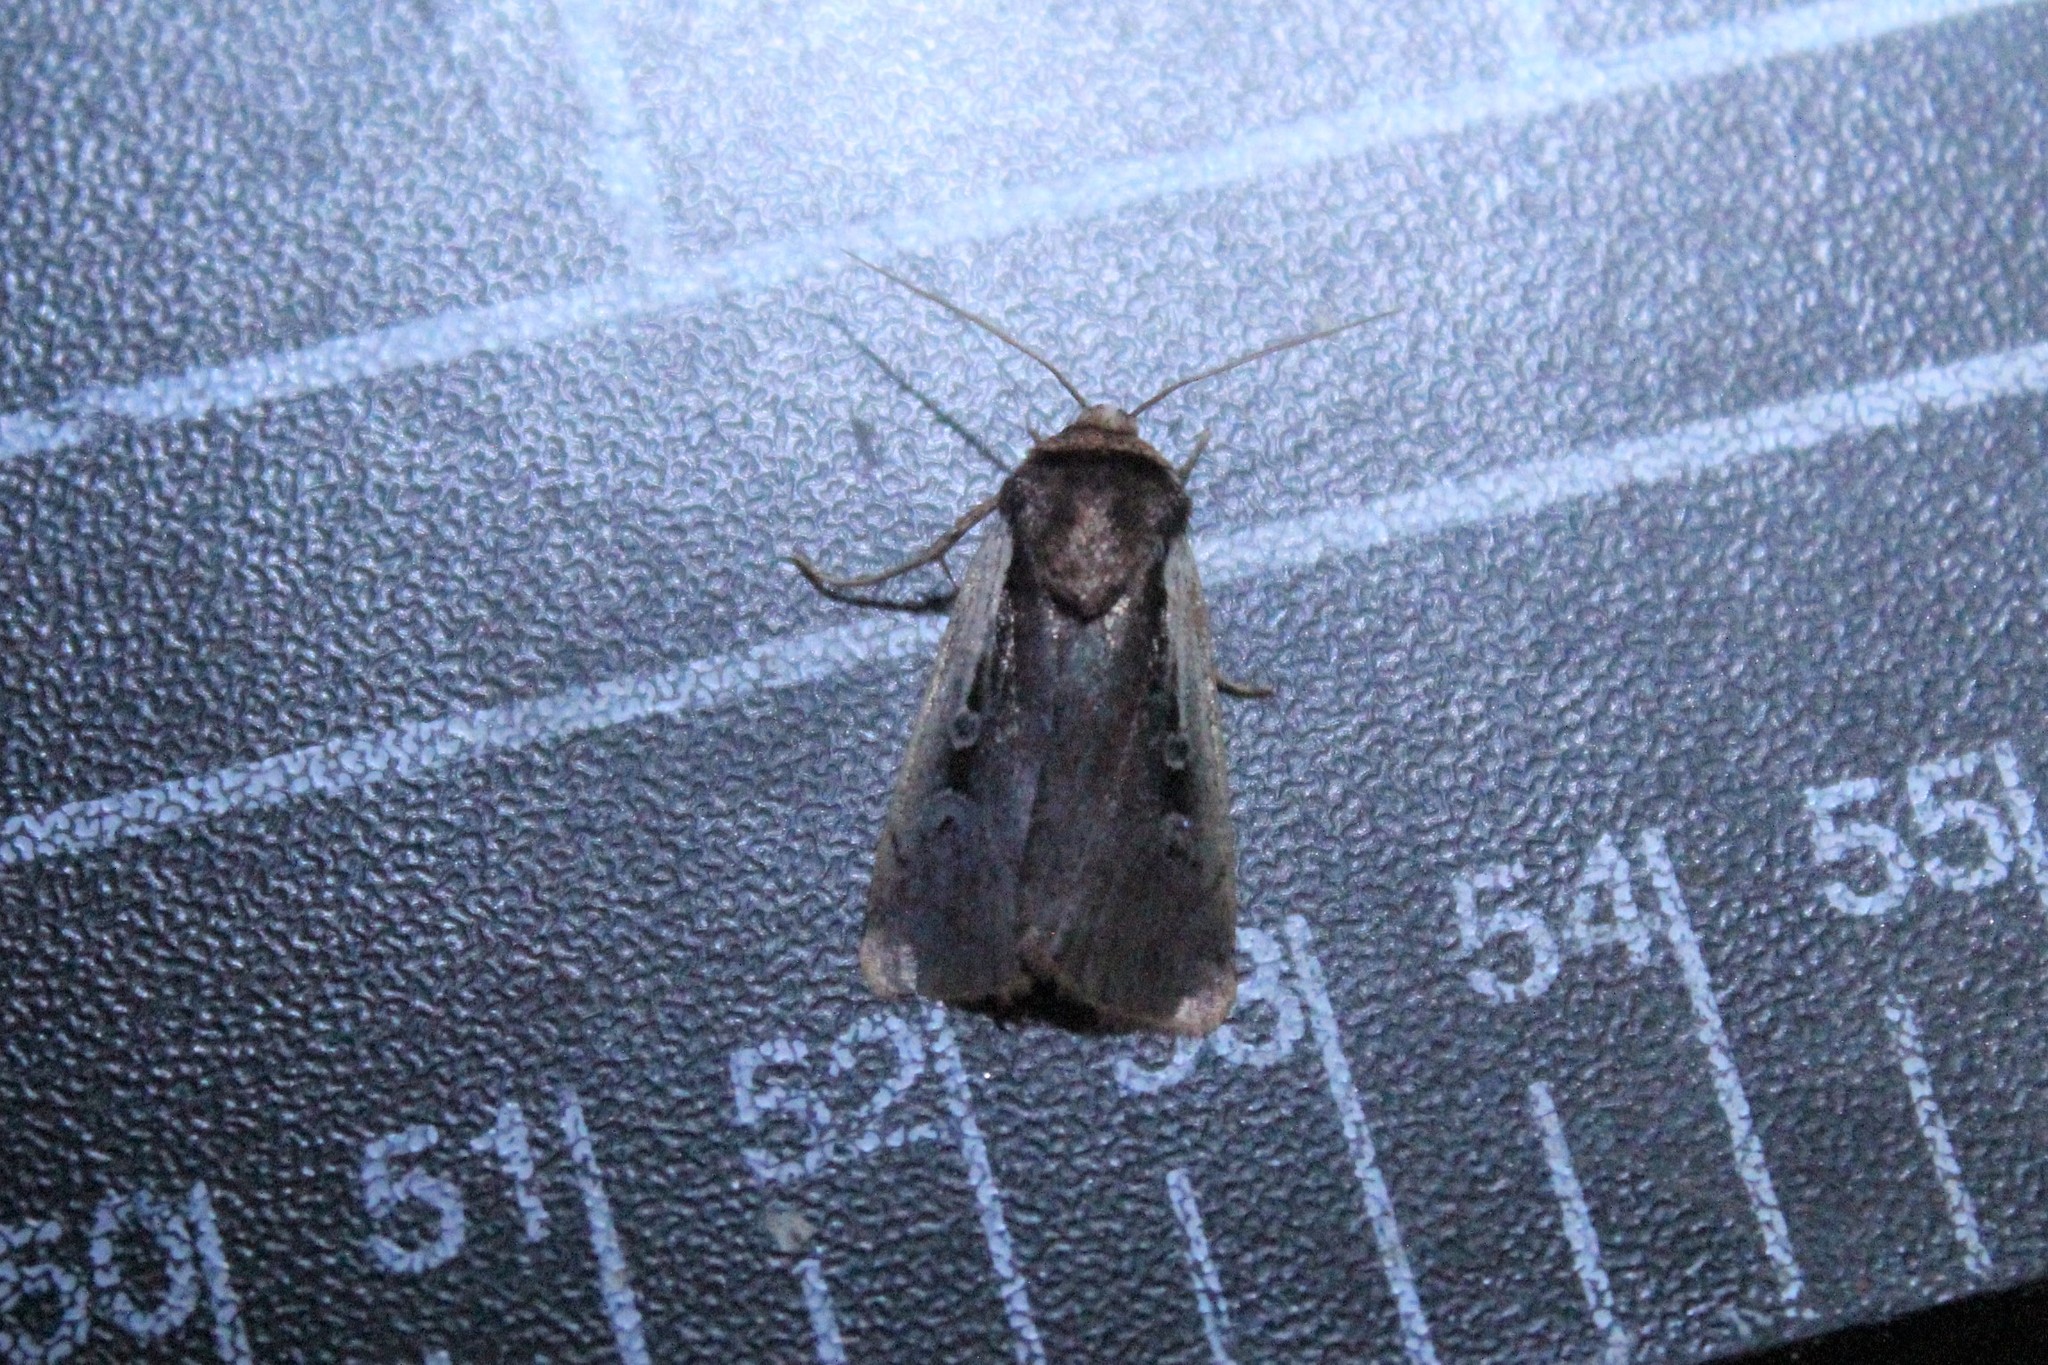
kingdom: Animalia
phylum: Arthropoda
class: Insecta
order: Lepidoptera
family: Noctuidae
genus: Ochropleura
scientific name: Ochropleura implecta
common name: Flame-shouldered dart
